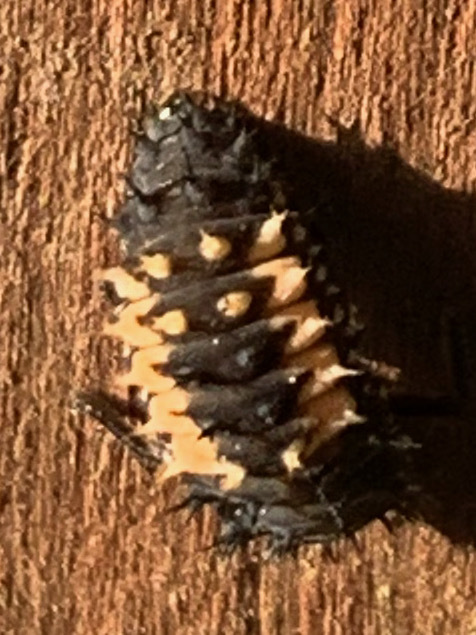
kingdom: Animalia
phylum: Arthropoda
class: Insecta
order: Coleoptera
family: Coccinellidae
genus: Harmonia
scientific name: Harmonia axyridis
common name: Harlequin ladybird
